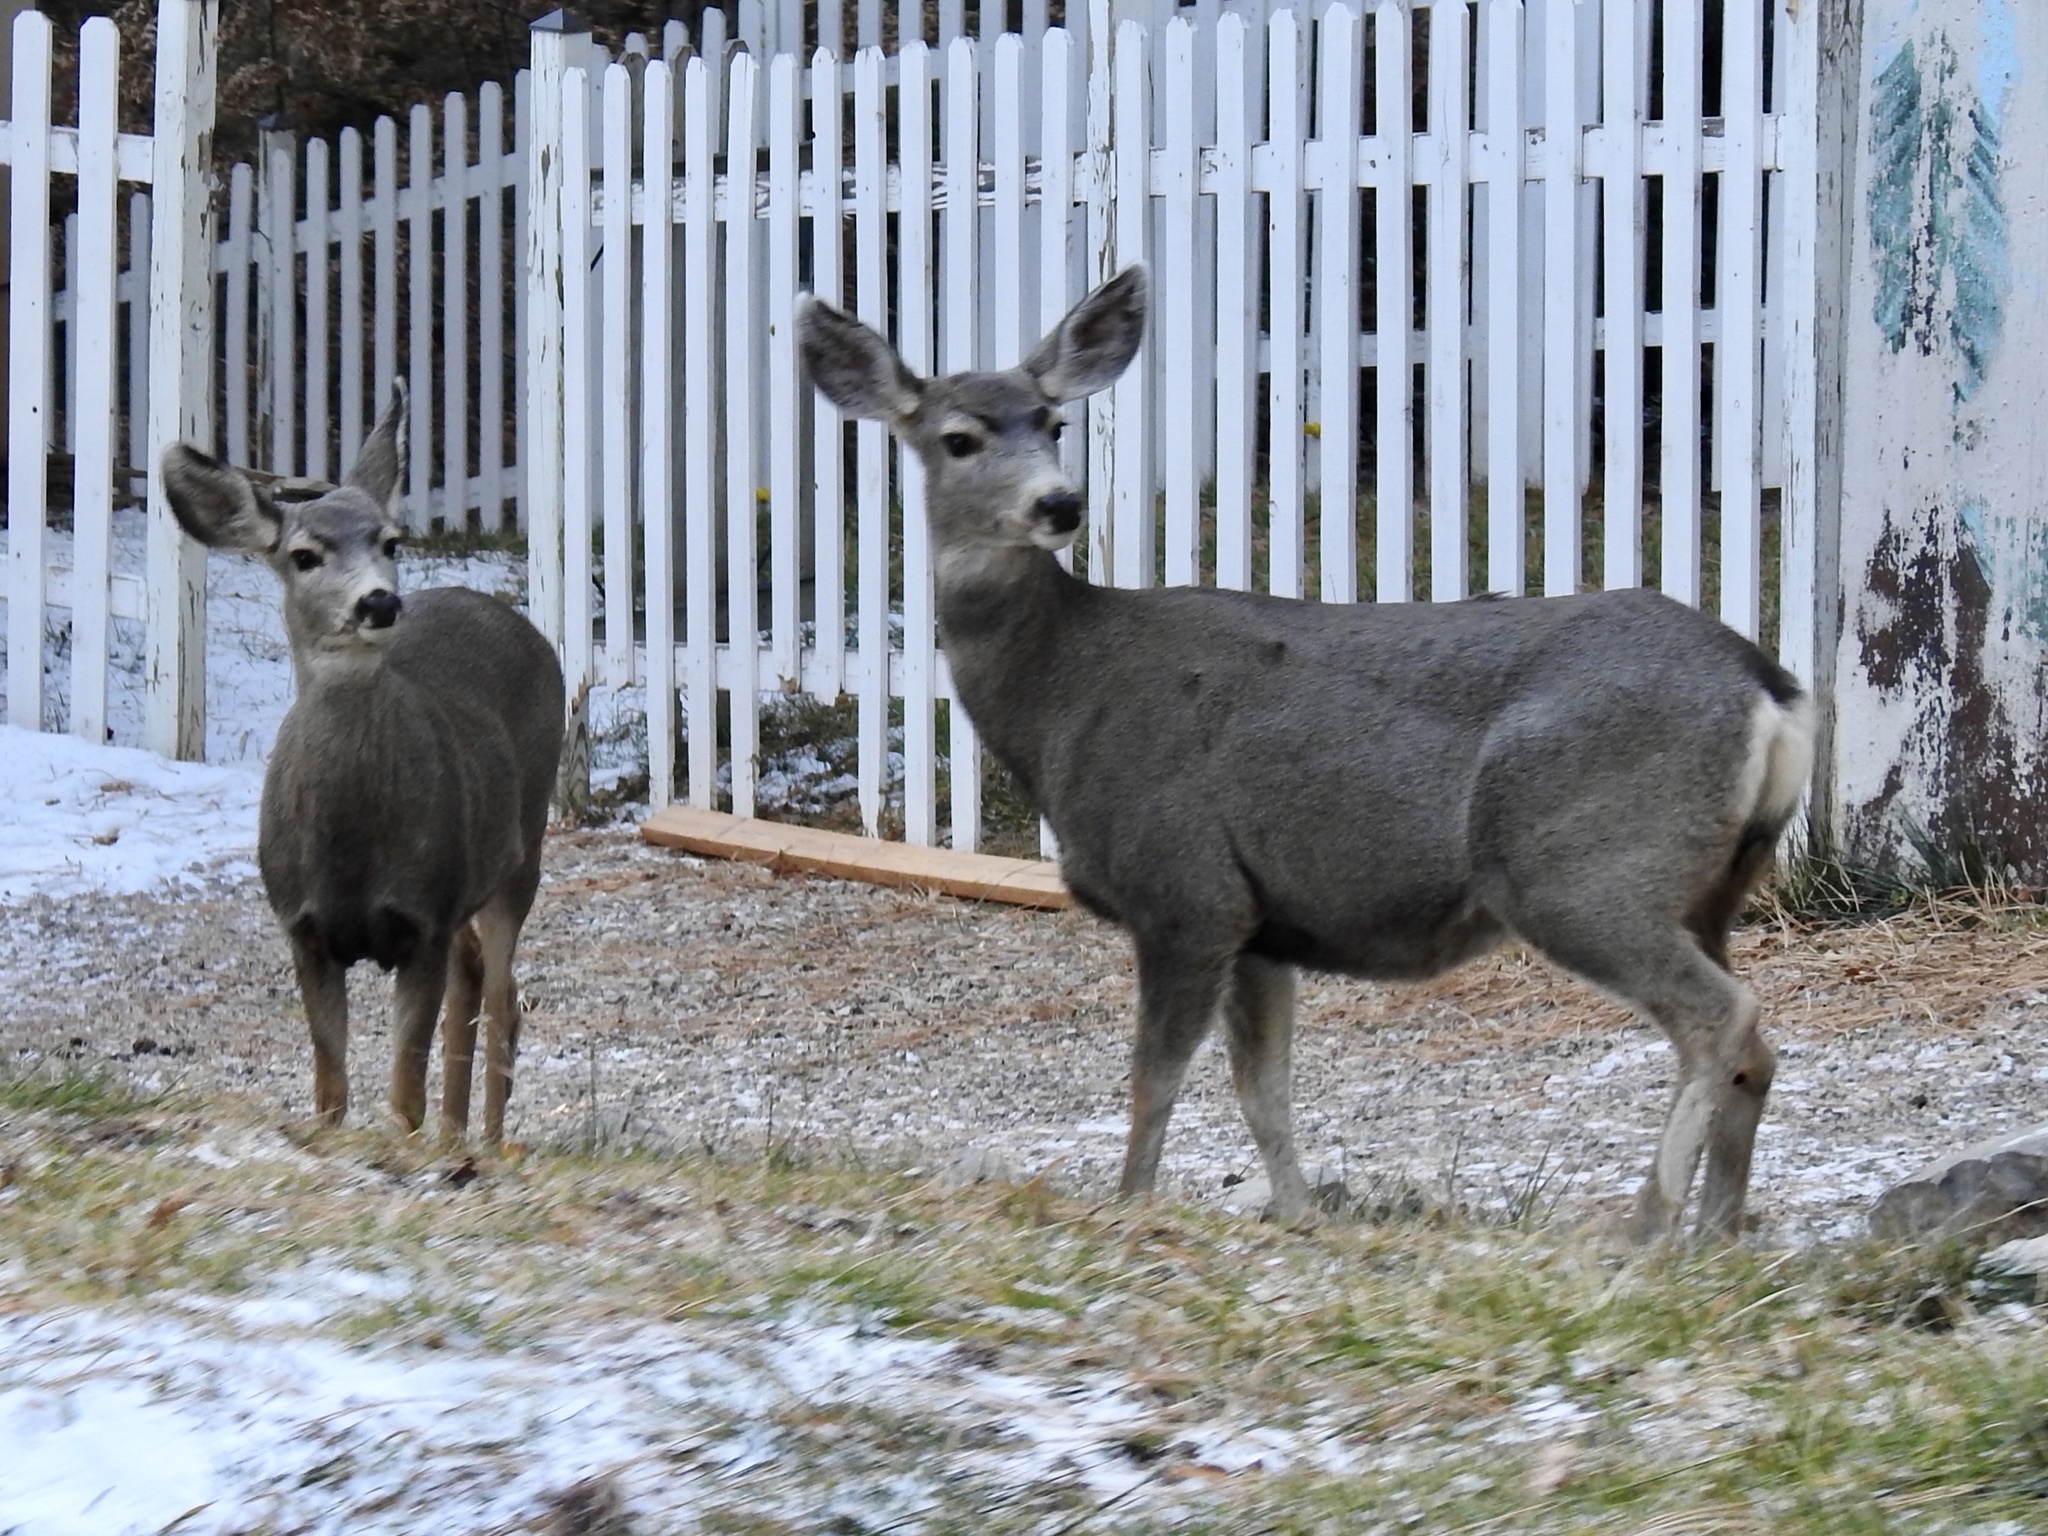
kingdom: Animalia
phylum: Chordata
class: Mammalia
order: Artiodactyla
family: Cervidae
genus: Odocoileus
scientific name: Odocoileus hemionus
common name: Mule deer
